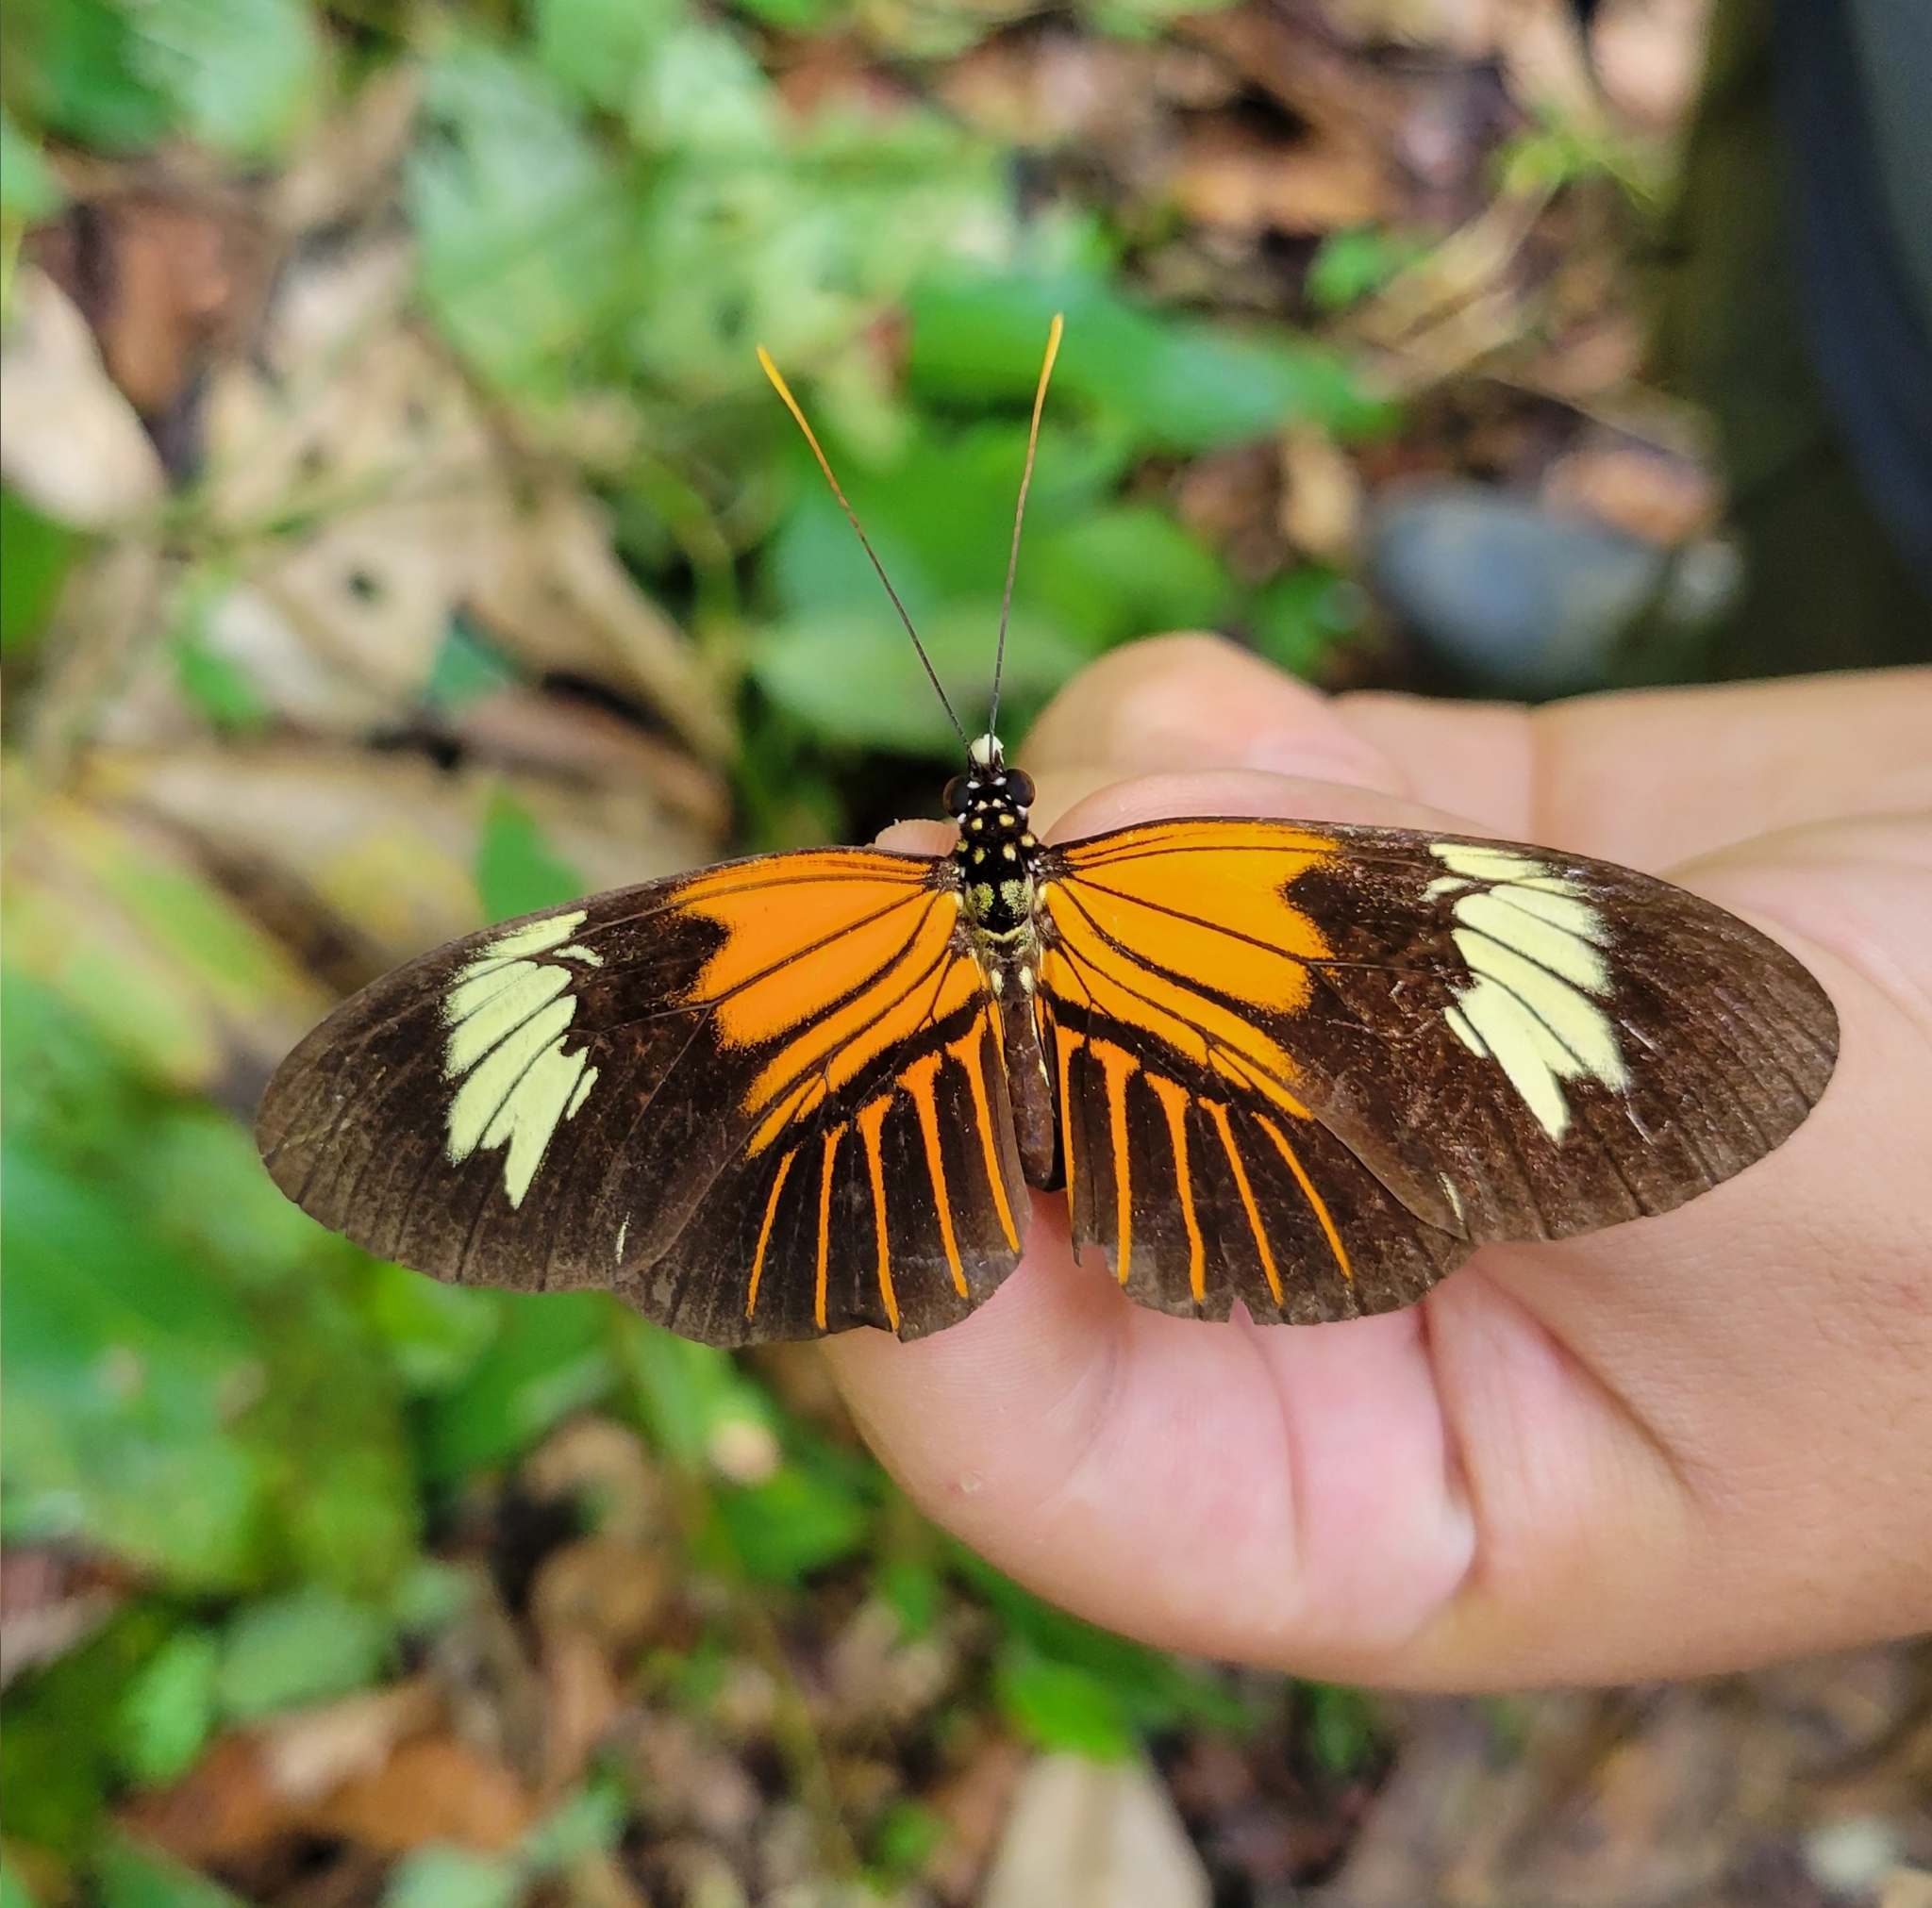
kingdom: Animalia
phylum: Arthropoda
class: Insecta
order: Lepidoptera
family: Nymphalidae
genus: Heliconius
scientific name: Heliconius elevatus
